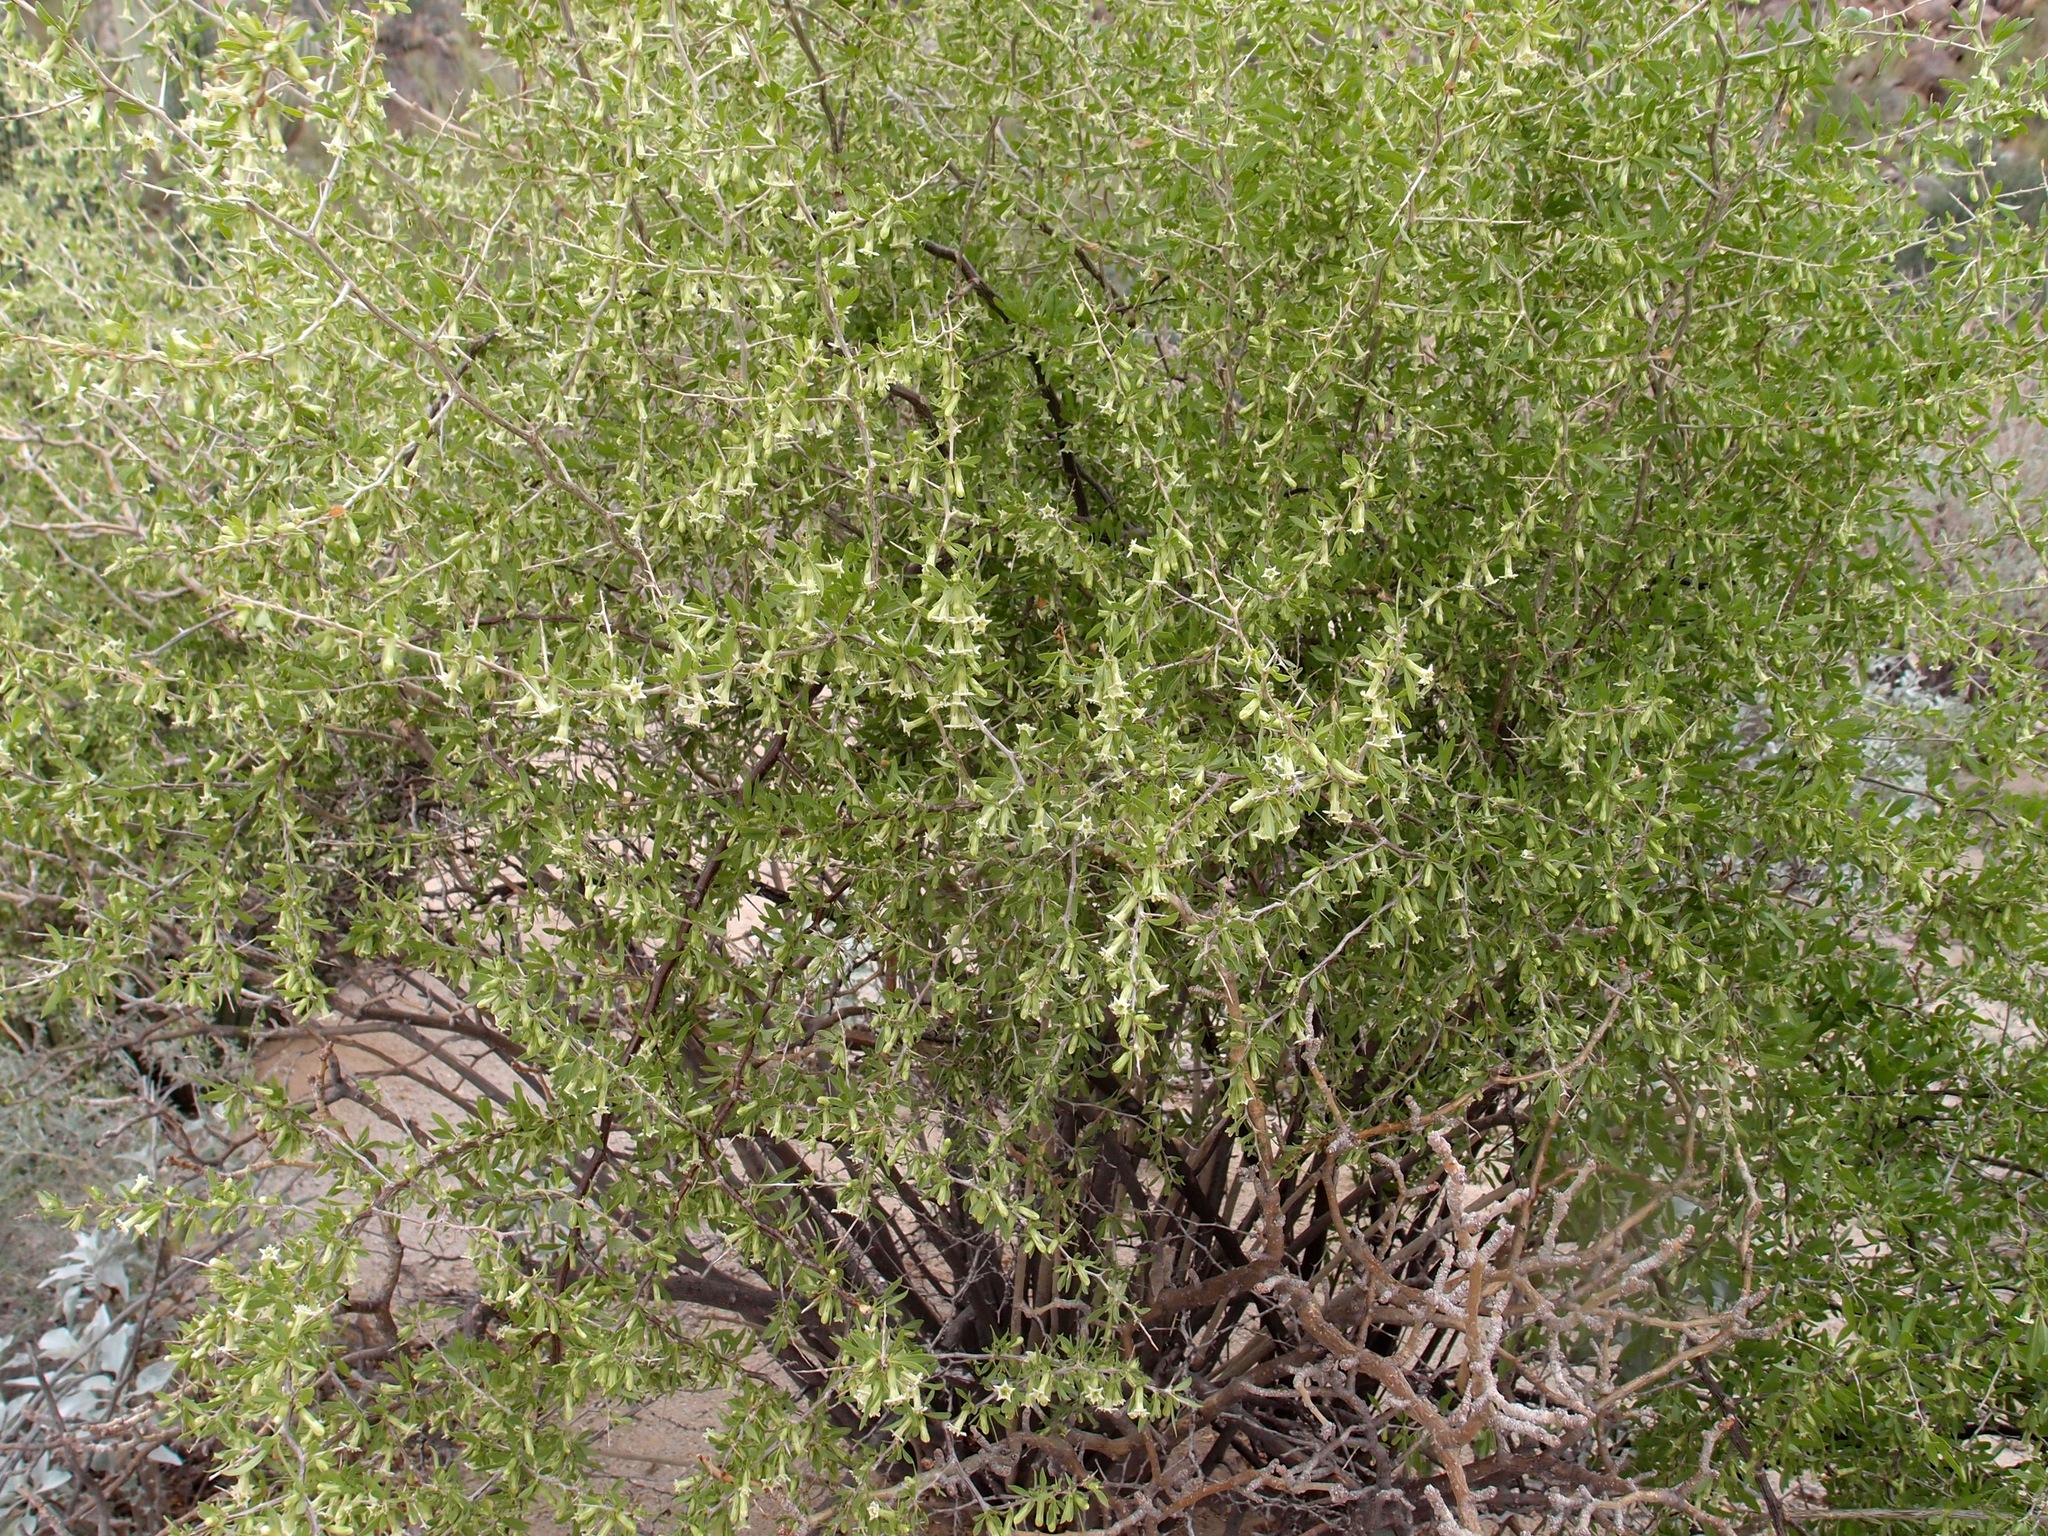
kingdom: Plantae
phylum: Tracheophyta
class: Magnoliopsida
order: Solanales
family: Solanaceae
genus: Lycium
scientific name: Lycium macrodon
